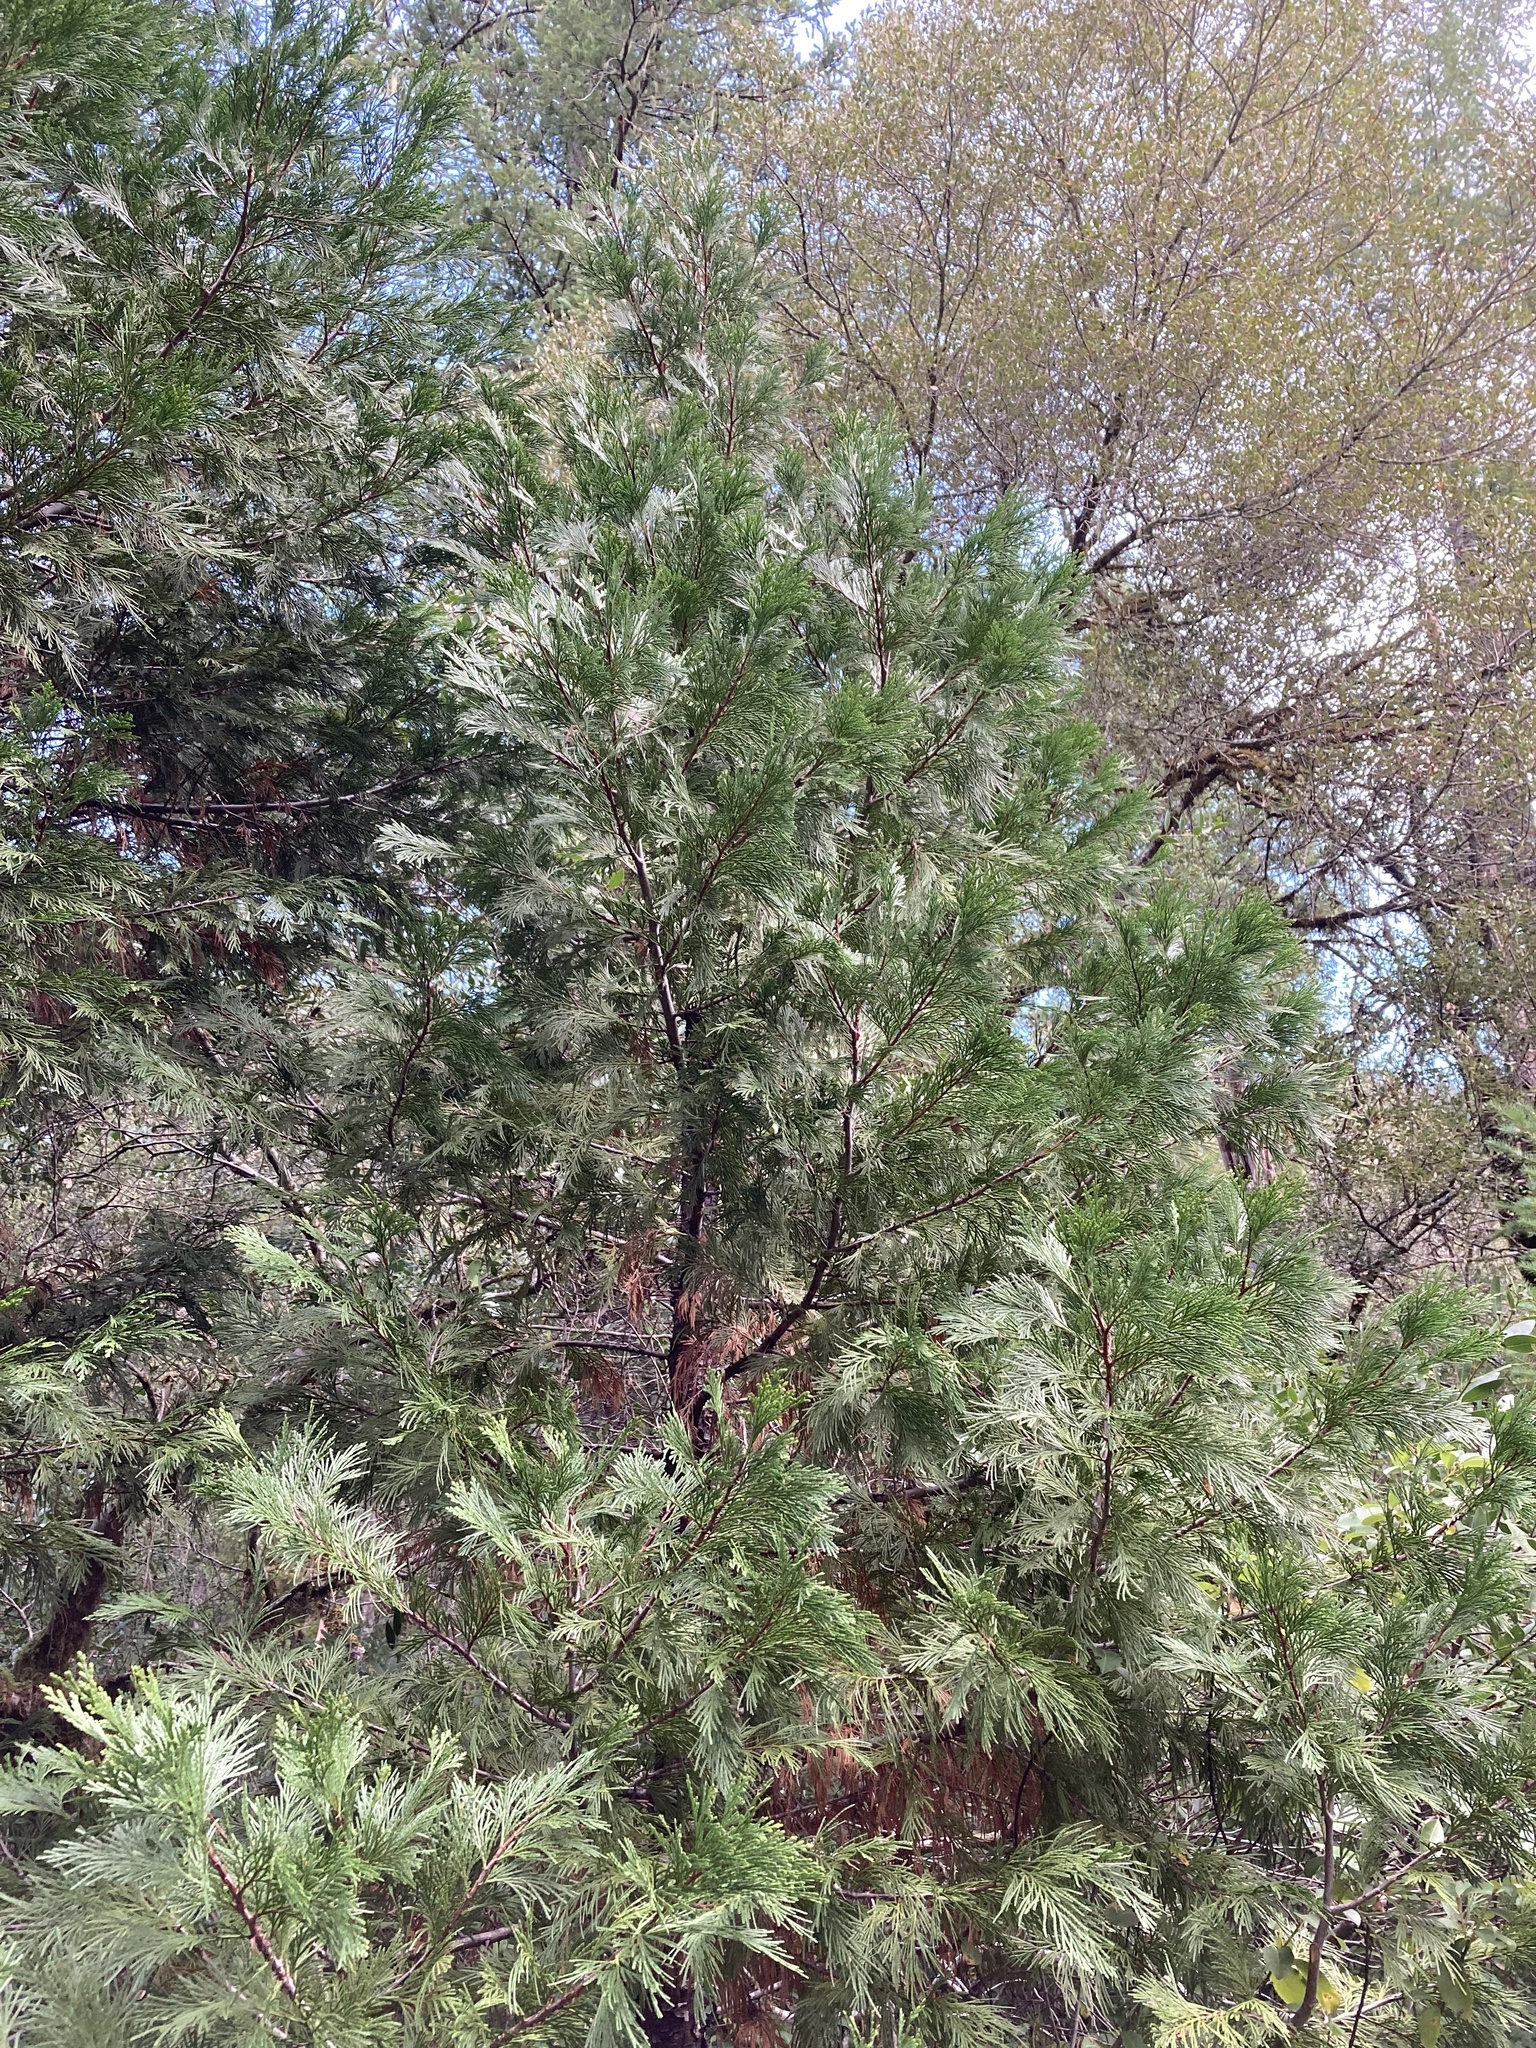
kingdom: Plantae
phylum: Tracheophyta
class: Pinopsida
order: Pinales
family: Cupressaceae
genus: Calocedrus
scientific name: Calocedrus decurrens
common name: Californian incense-cedar
